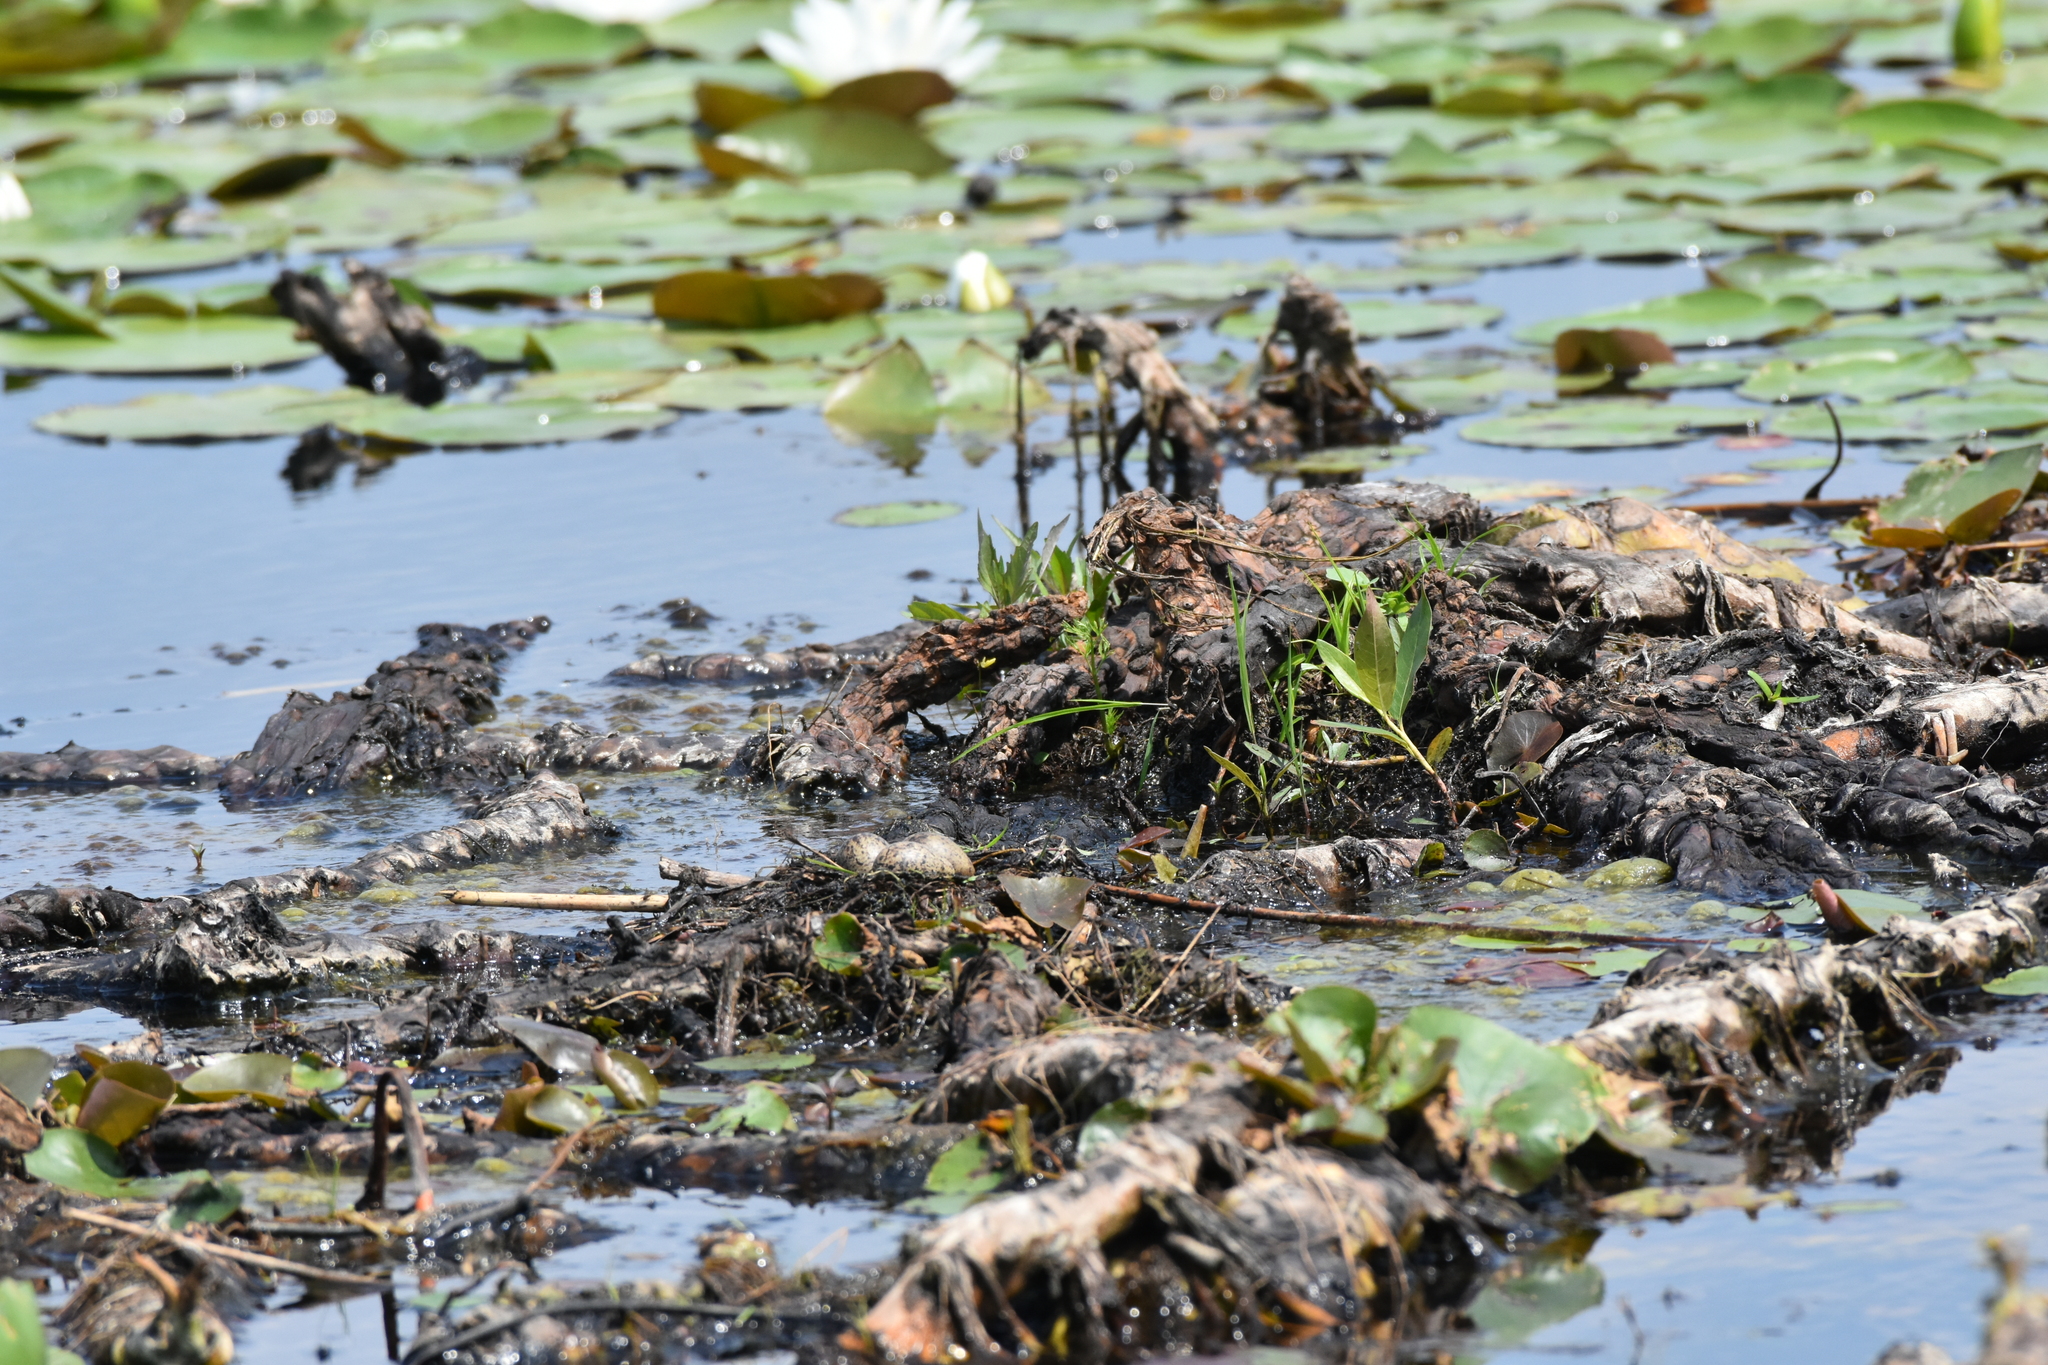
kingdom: Animalia
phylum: Chordata
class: Aves
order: Charadriiformes
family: Laridae
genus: Chlidonias
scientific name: Chlidonias niger
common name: Black tern
